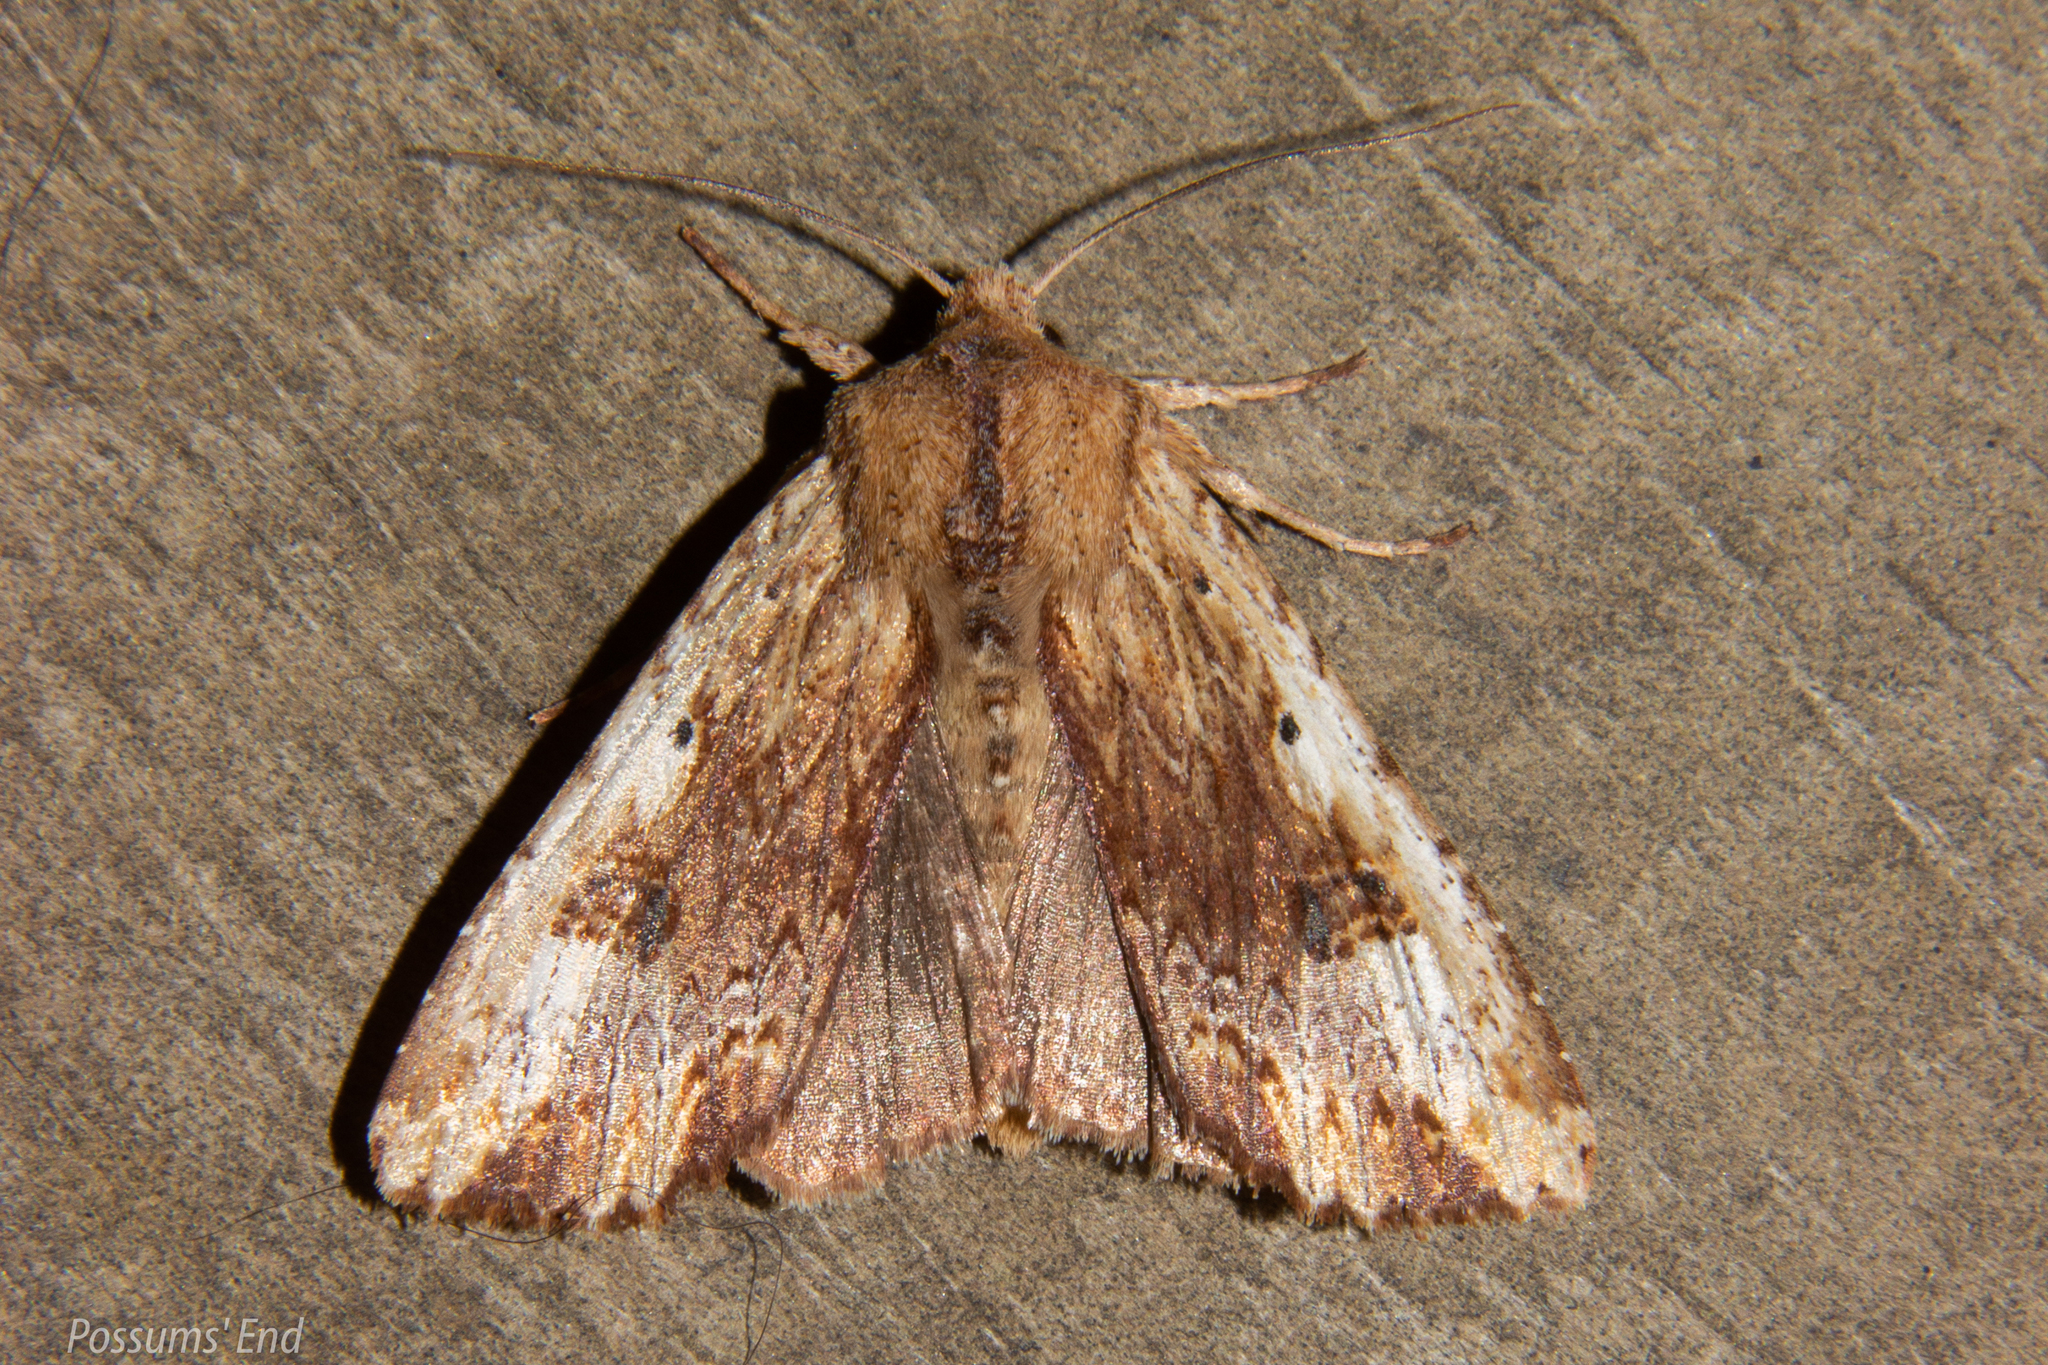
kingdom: Animalia
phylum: Arthropoda
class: Insecta
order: Lepidoptera
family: Noctuidae
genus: Ichneutica
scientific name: Ichneutica
